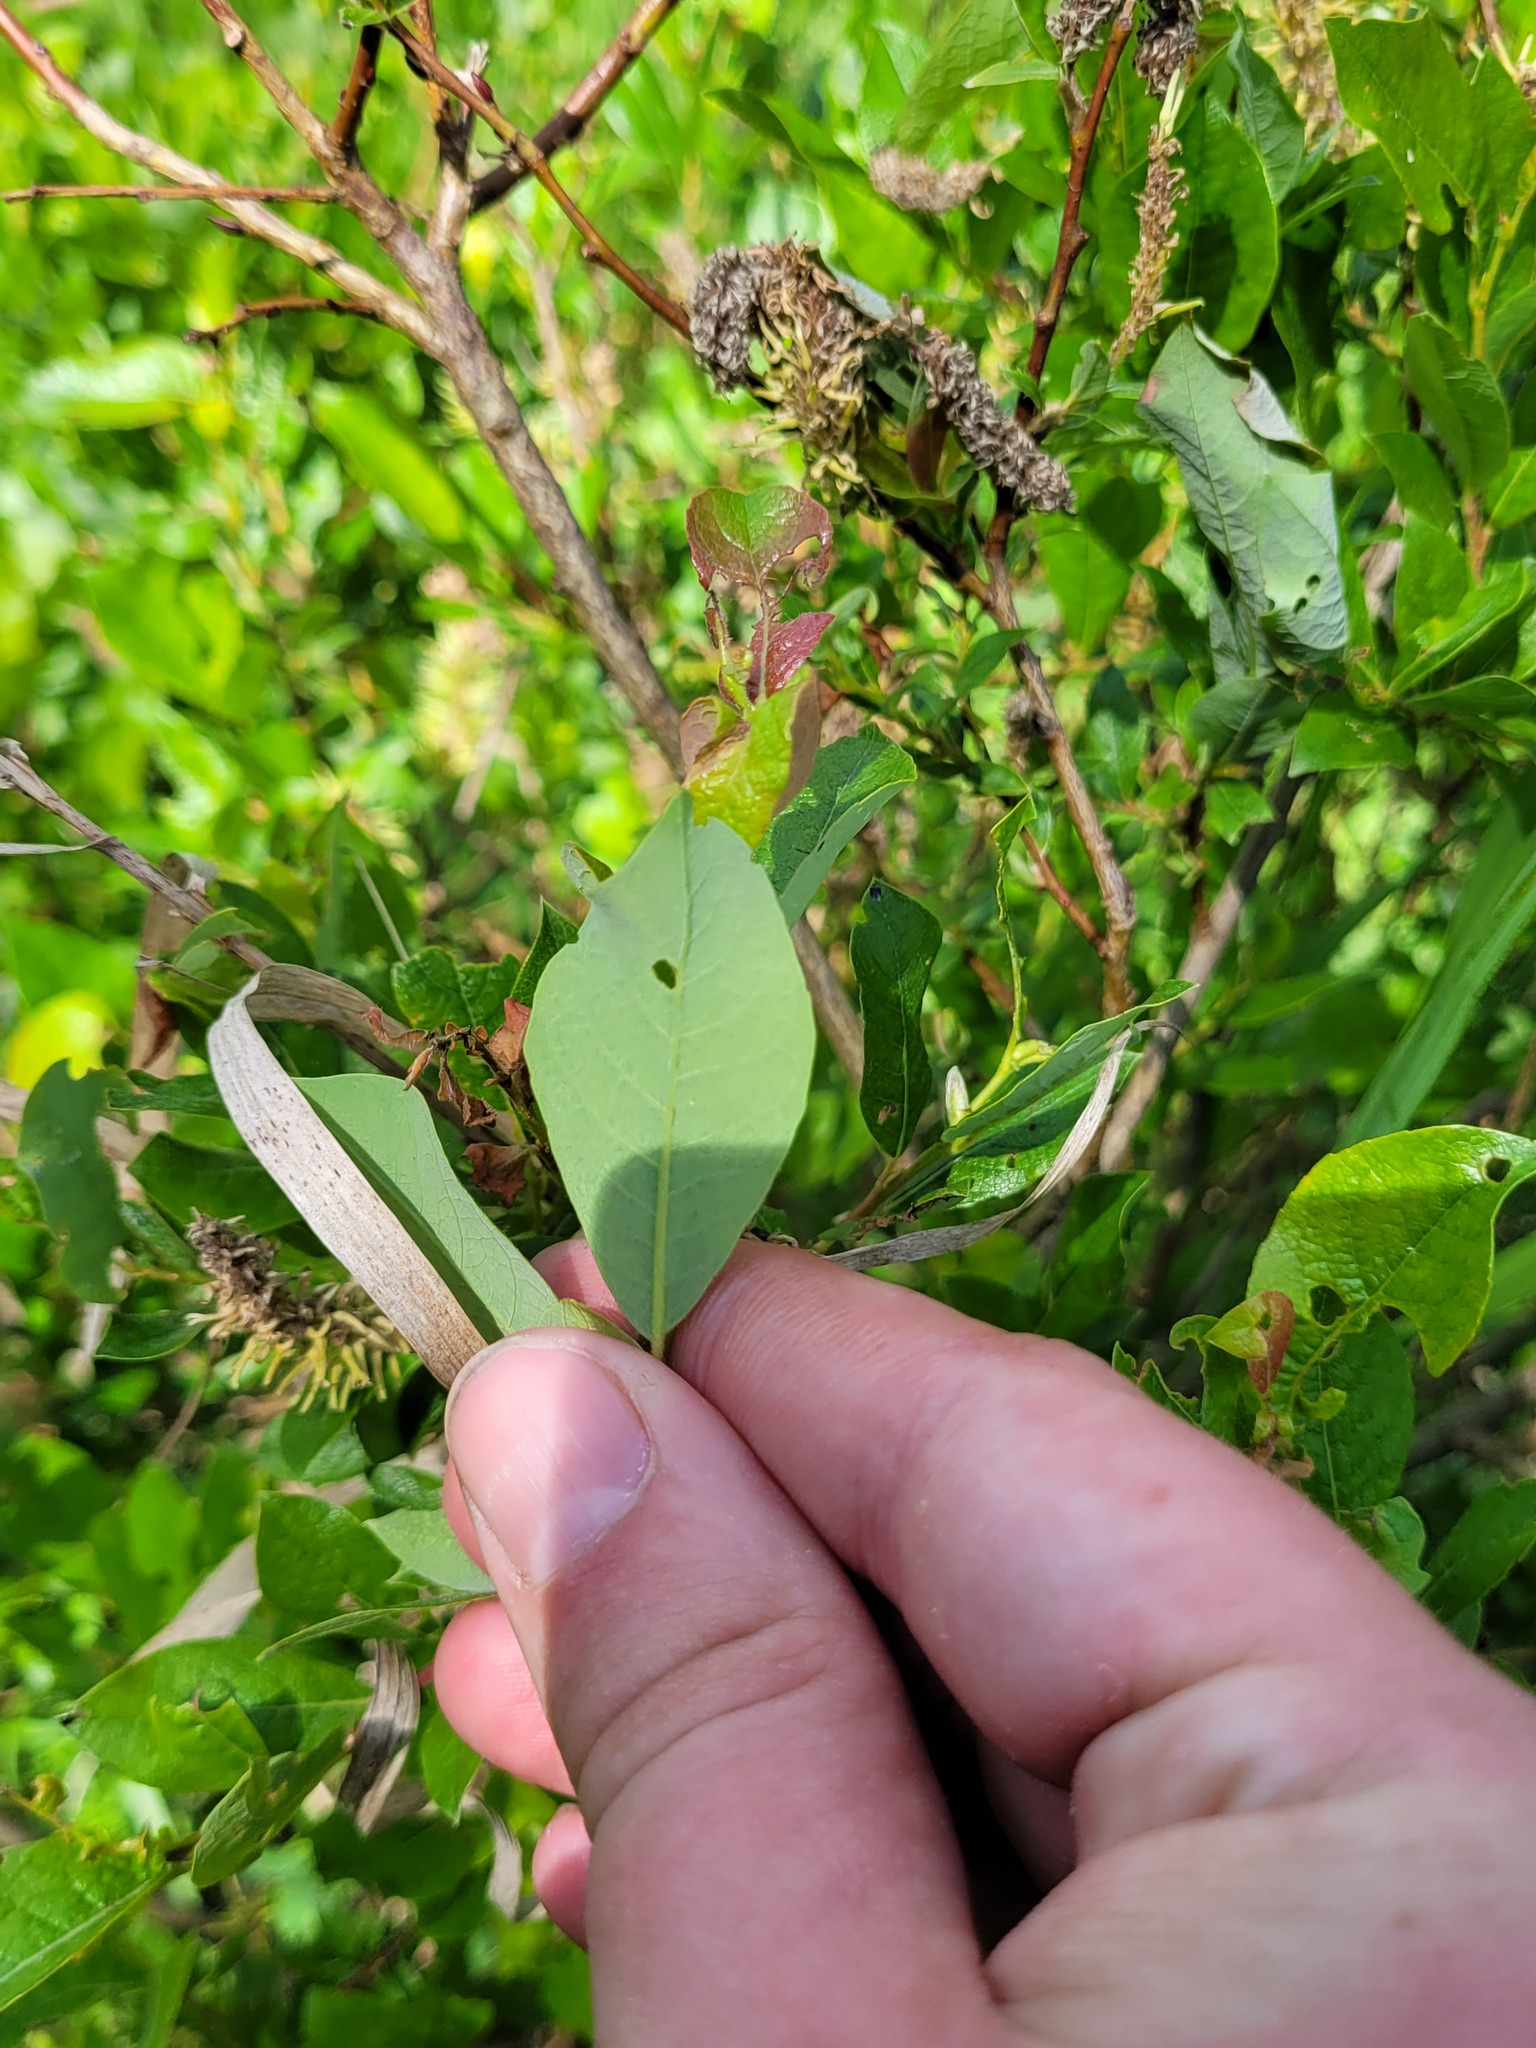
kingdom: Plantae
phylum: Tracheophyta
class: Magnoliopsida
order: Malpighiales
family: Salicaceae
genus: Salix
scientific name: Salix starkeana
